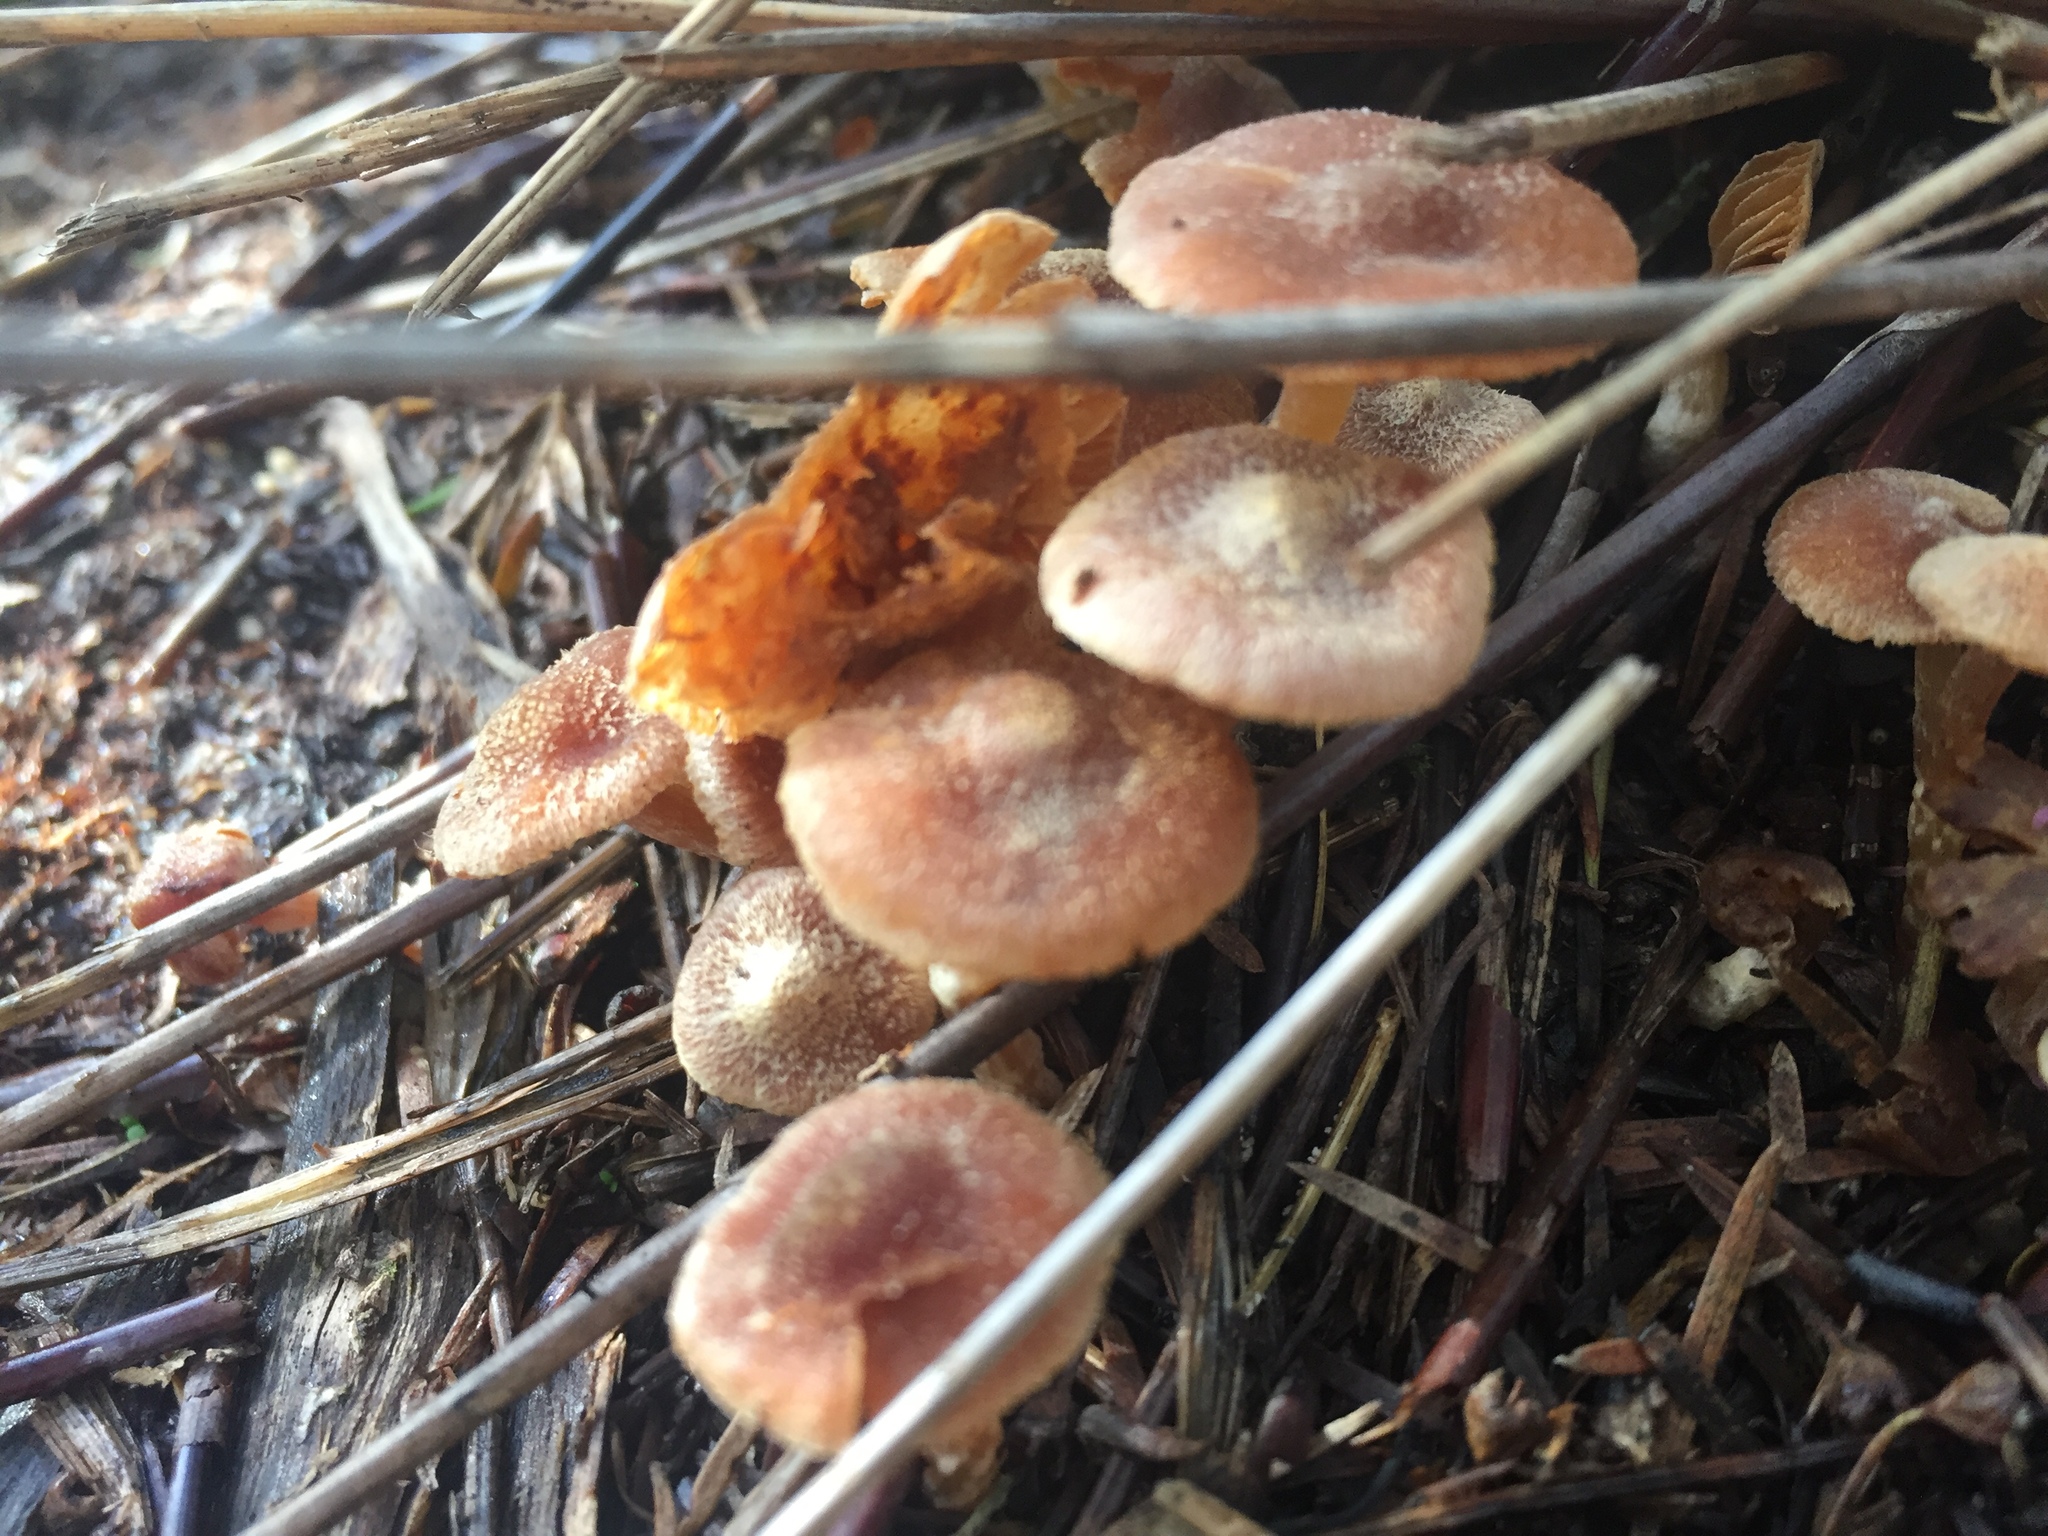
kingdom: Fungi
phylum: Basidiomycota
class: Agaricomycetes
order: Agaricales
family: Tubariaceae
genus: Tubaria
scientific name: Tubaria furfuracea
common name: Scurfy twiglet
